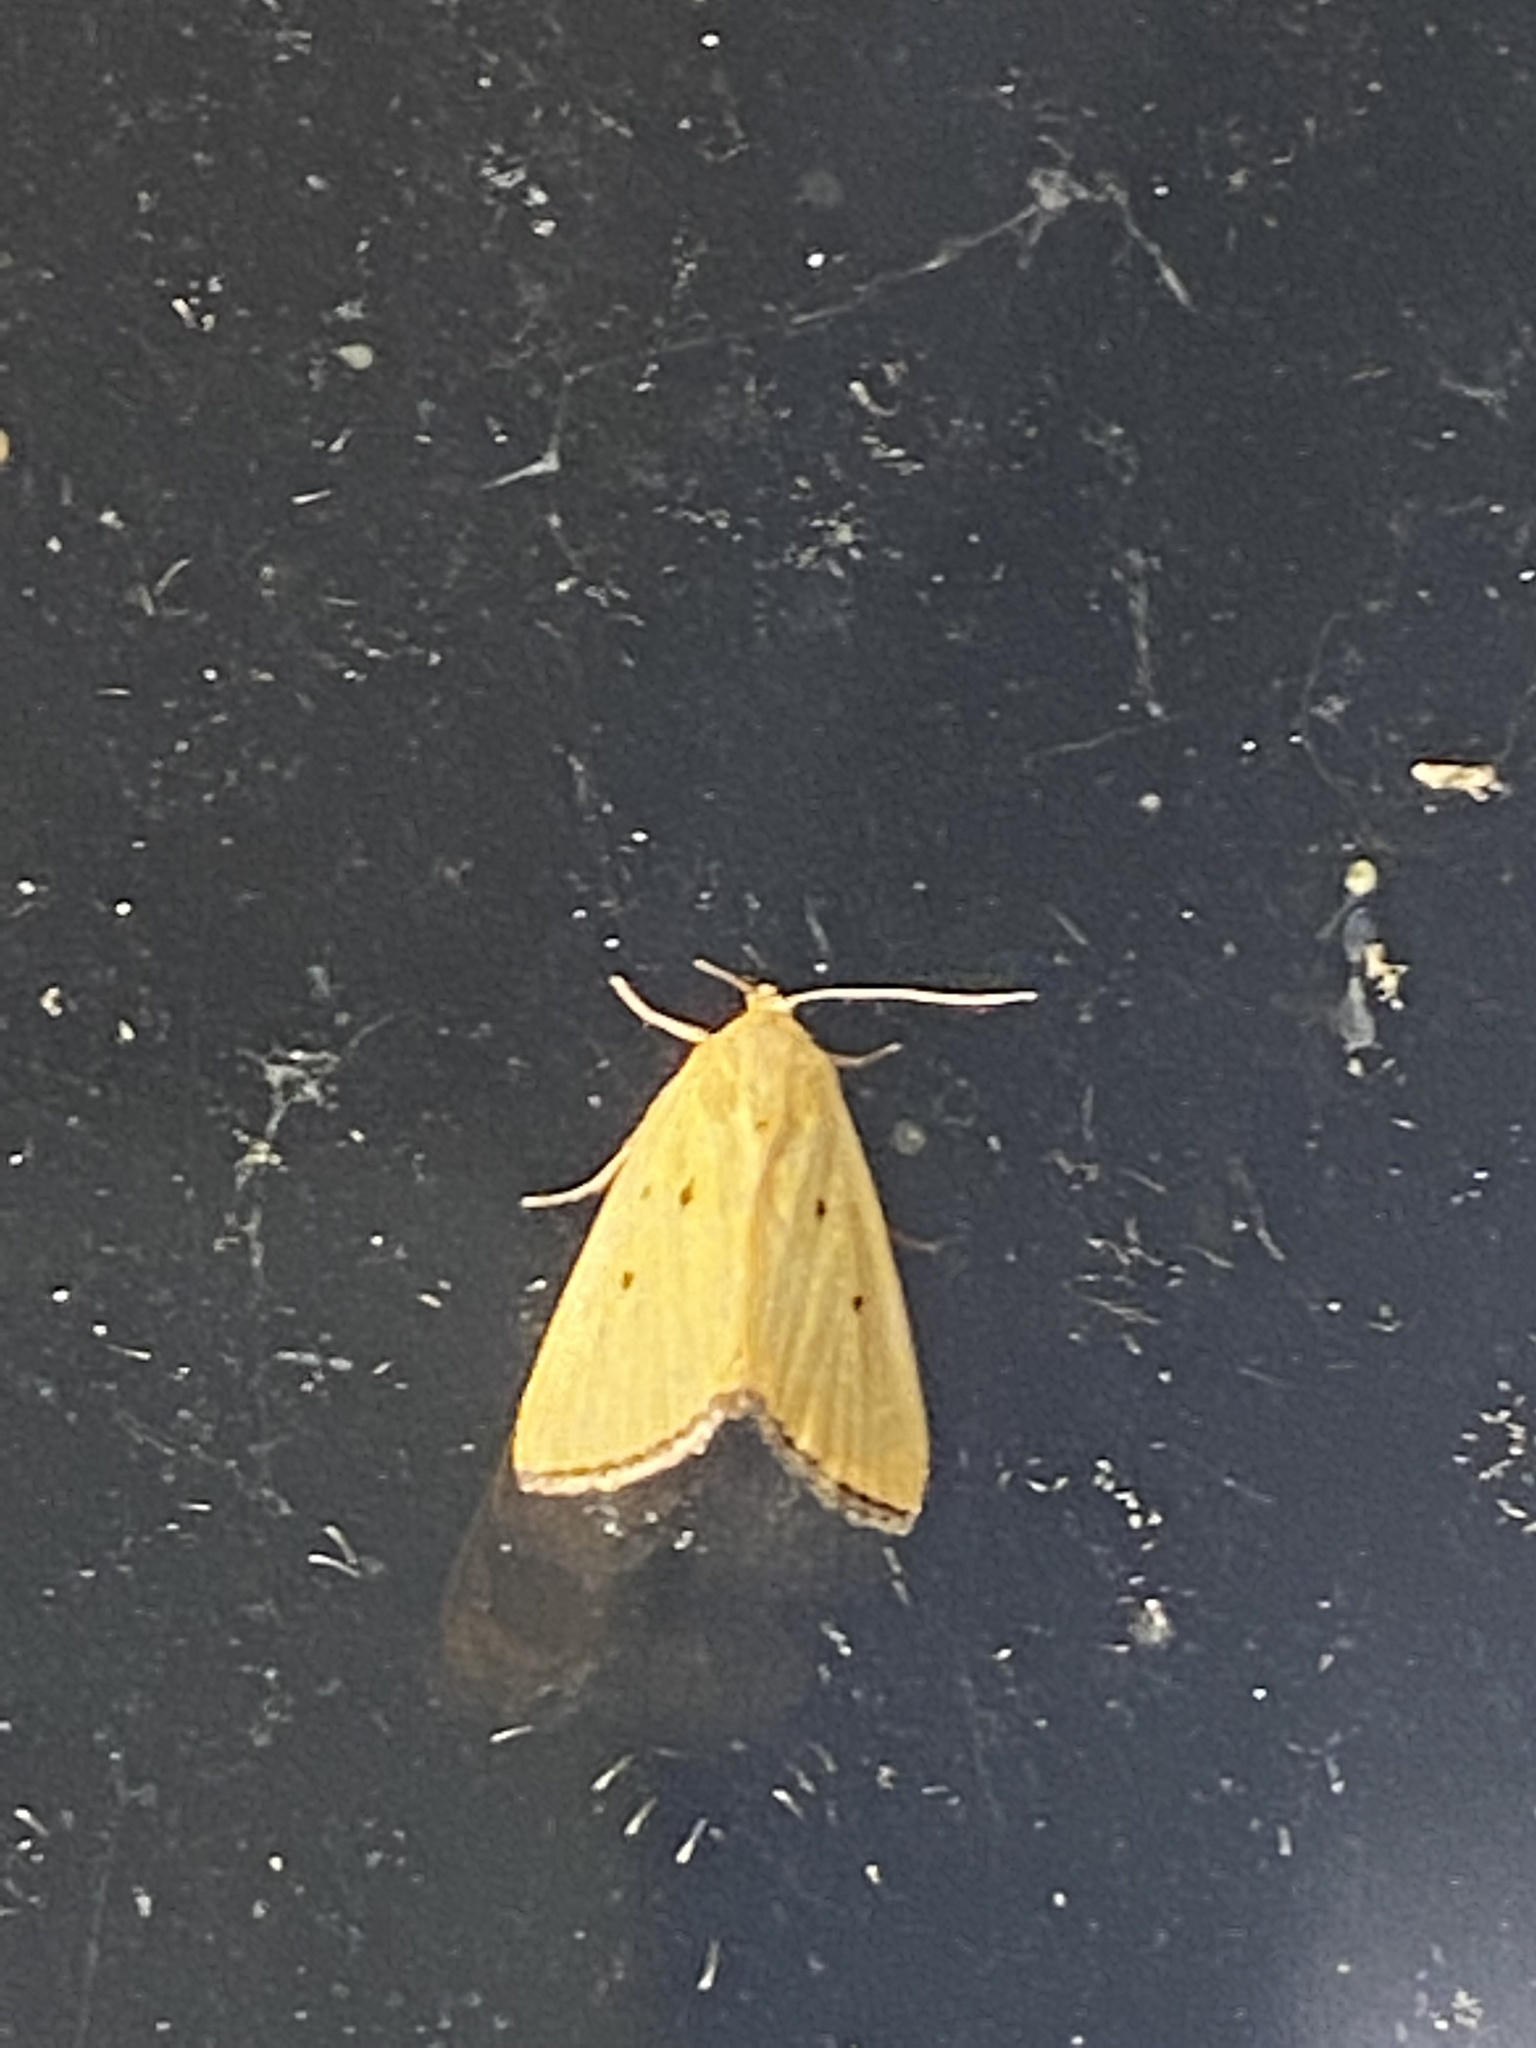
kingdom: Animalia
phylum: Arthropoda
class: Insecta
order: Lepidoptera
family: Noctuidae
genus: Marimatha
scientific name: Marimatha nigrofimbria
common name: Black-bordered lemon moth
